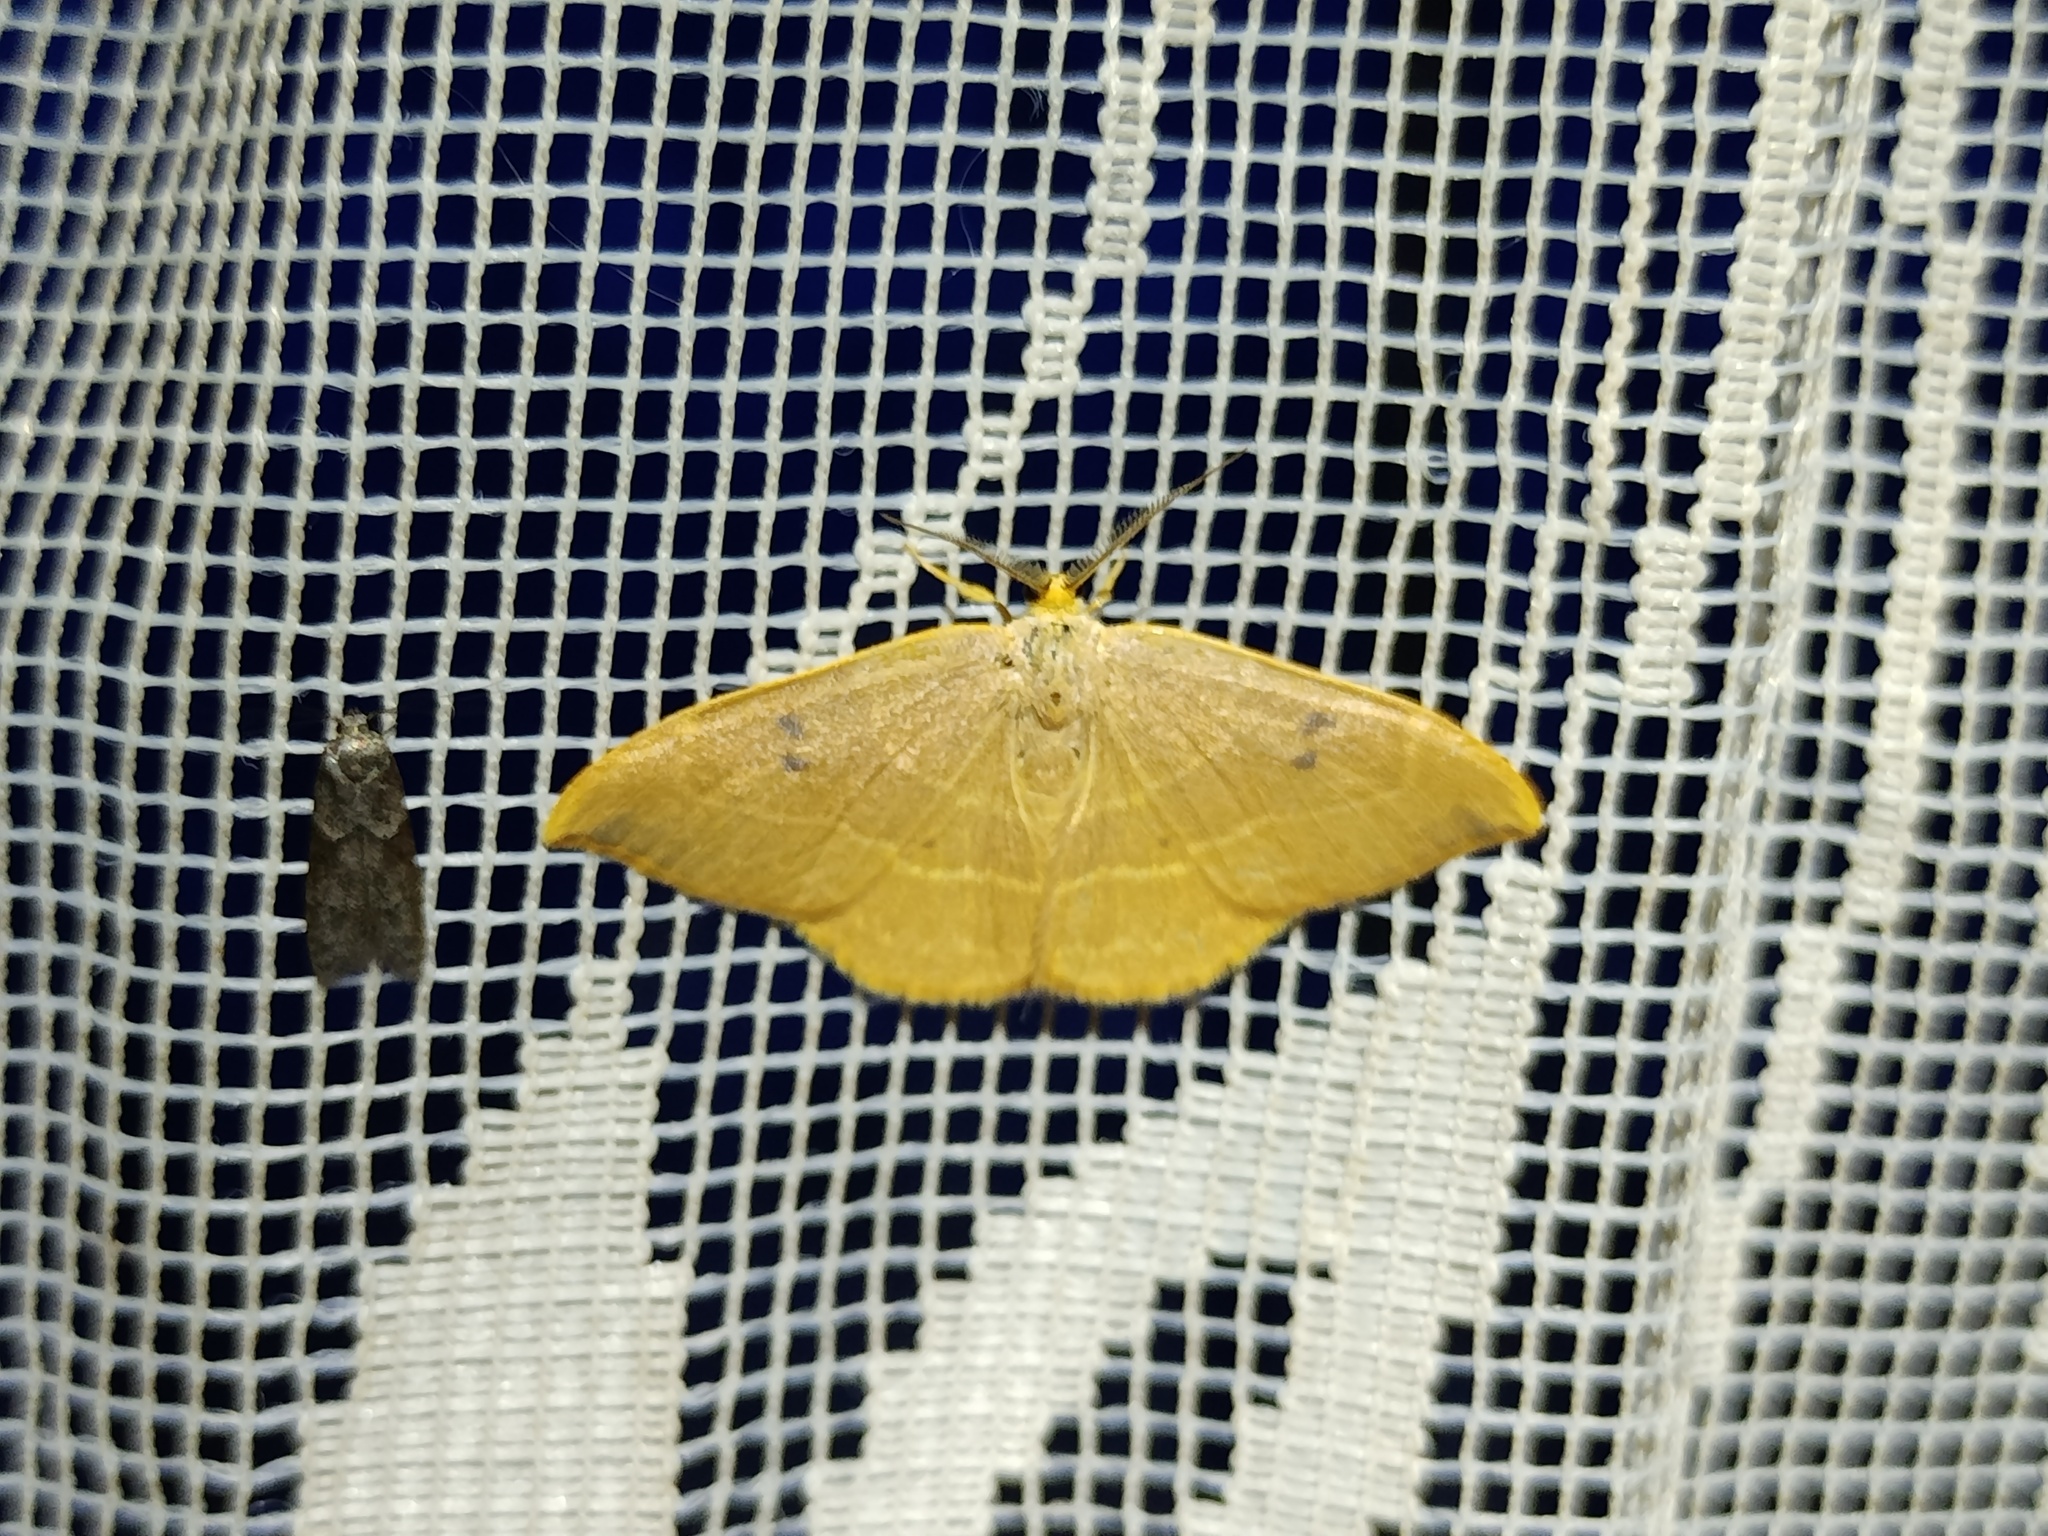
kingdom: Animalia
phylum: Arthropoda
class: Insecta
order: Lepidoptera
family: Drepanidae
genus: Watsonalla
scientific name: Watsonalla binaria
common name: Oak hook-tip
